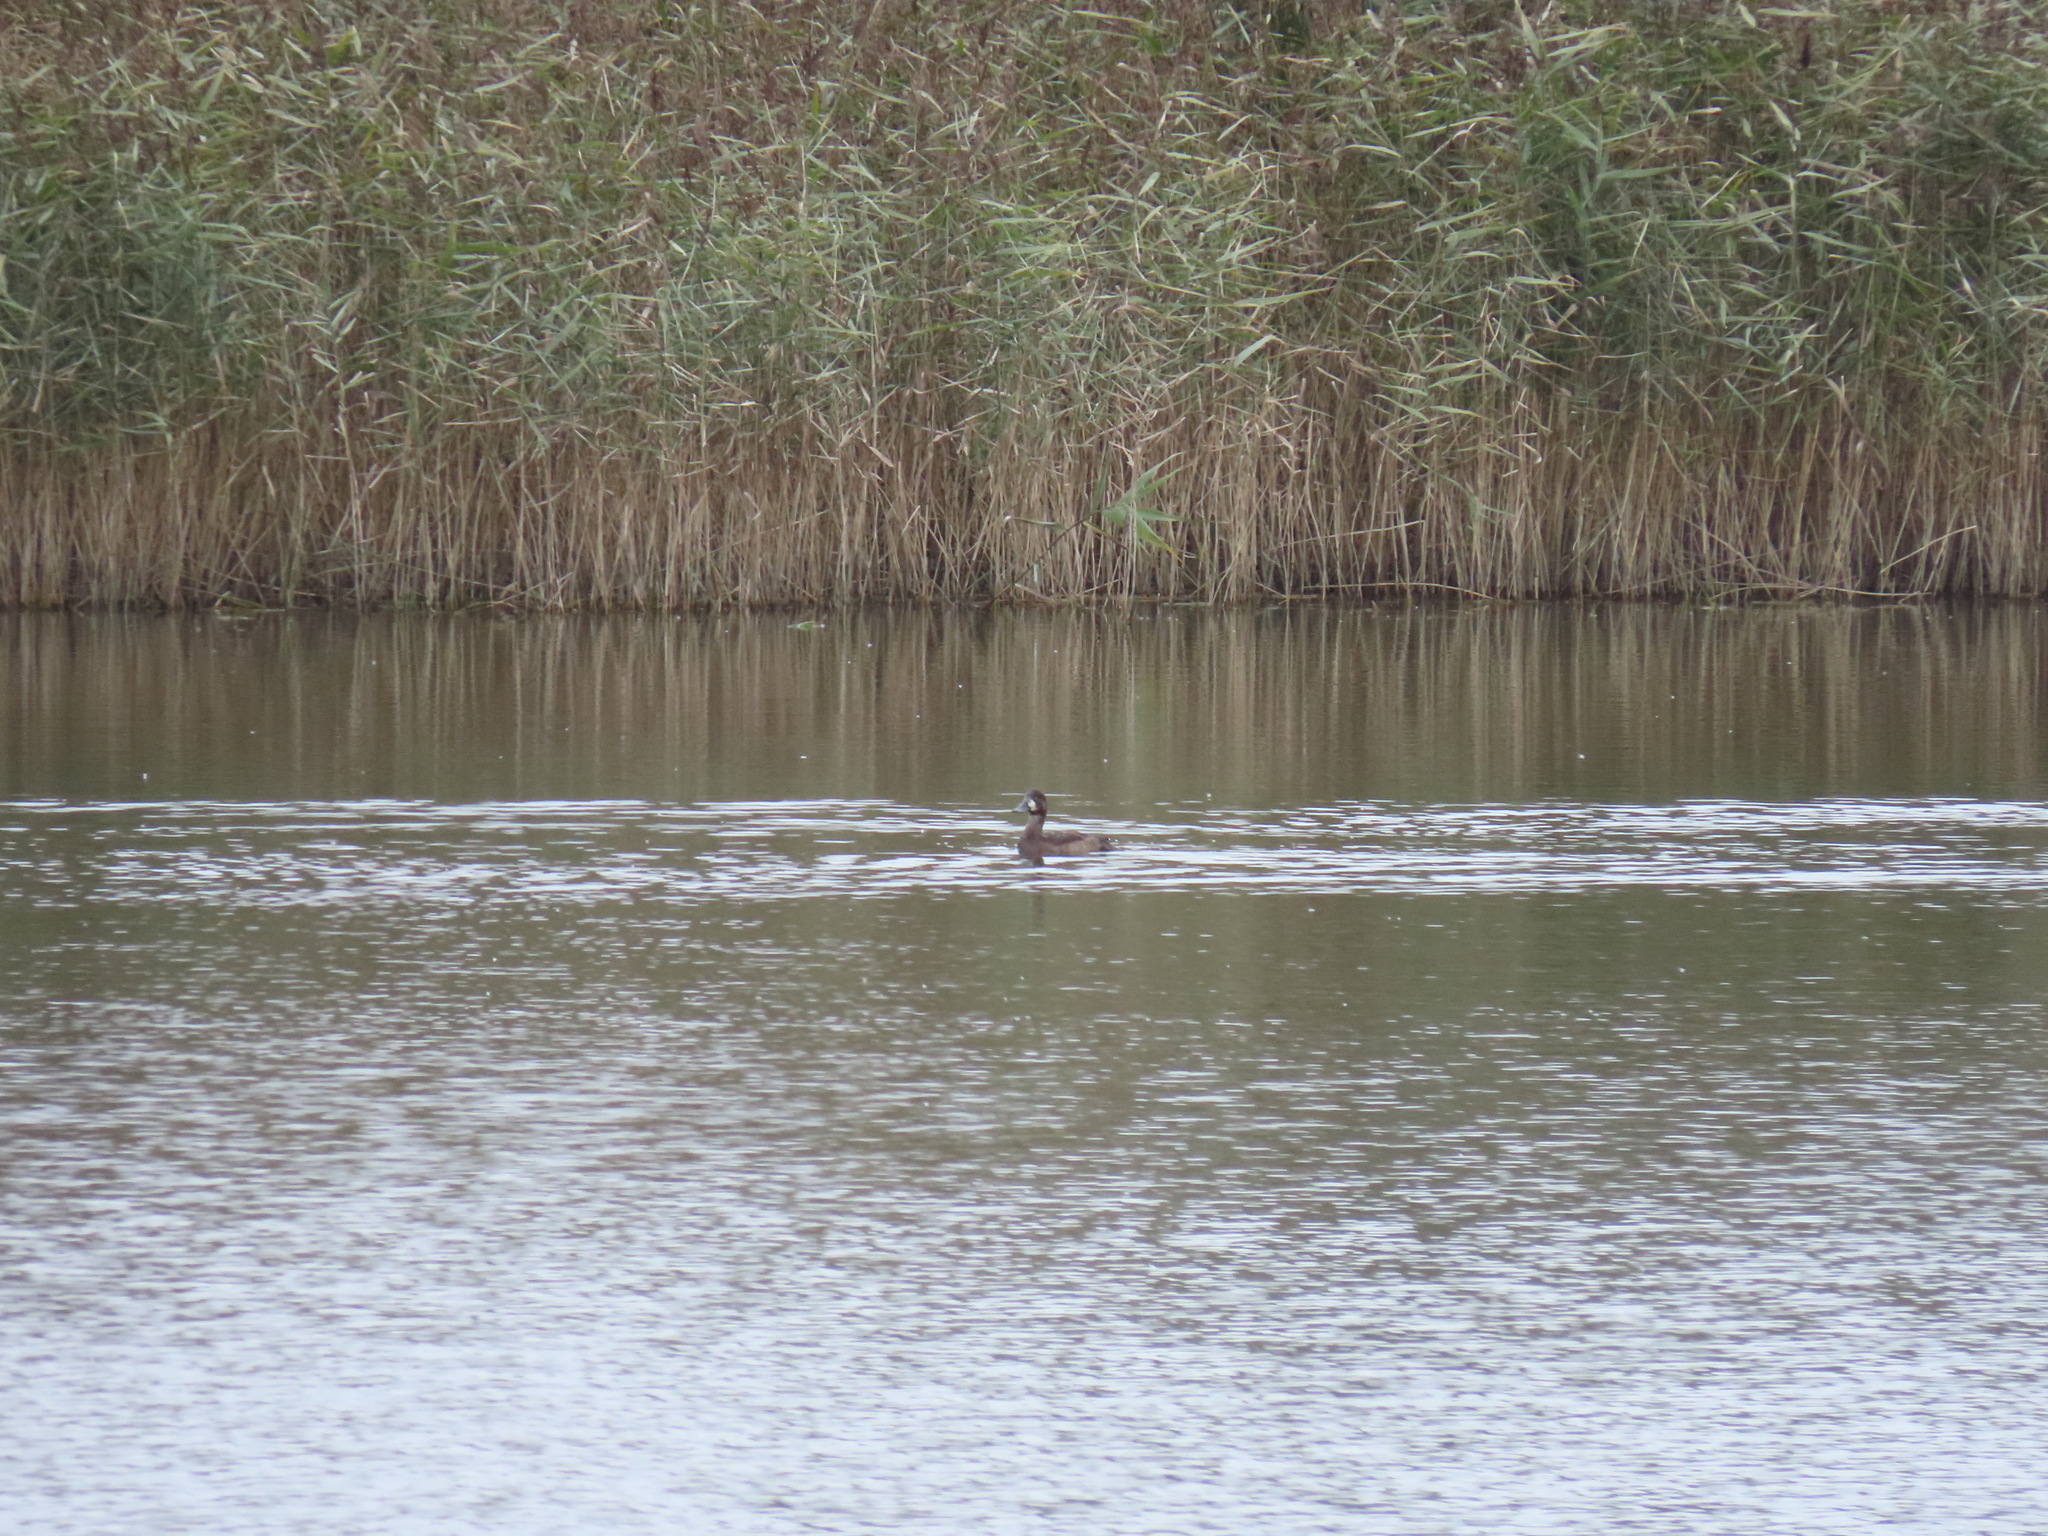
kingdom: Animalia
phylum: Chordata
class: Aves
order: Anseriformes
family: Anatidae
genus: Aythya
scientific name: Aythya marila
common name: Greater scaup
